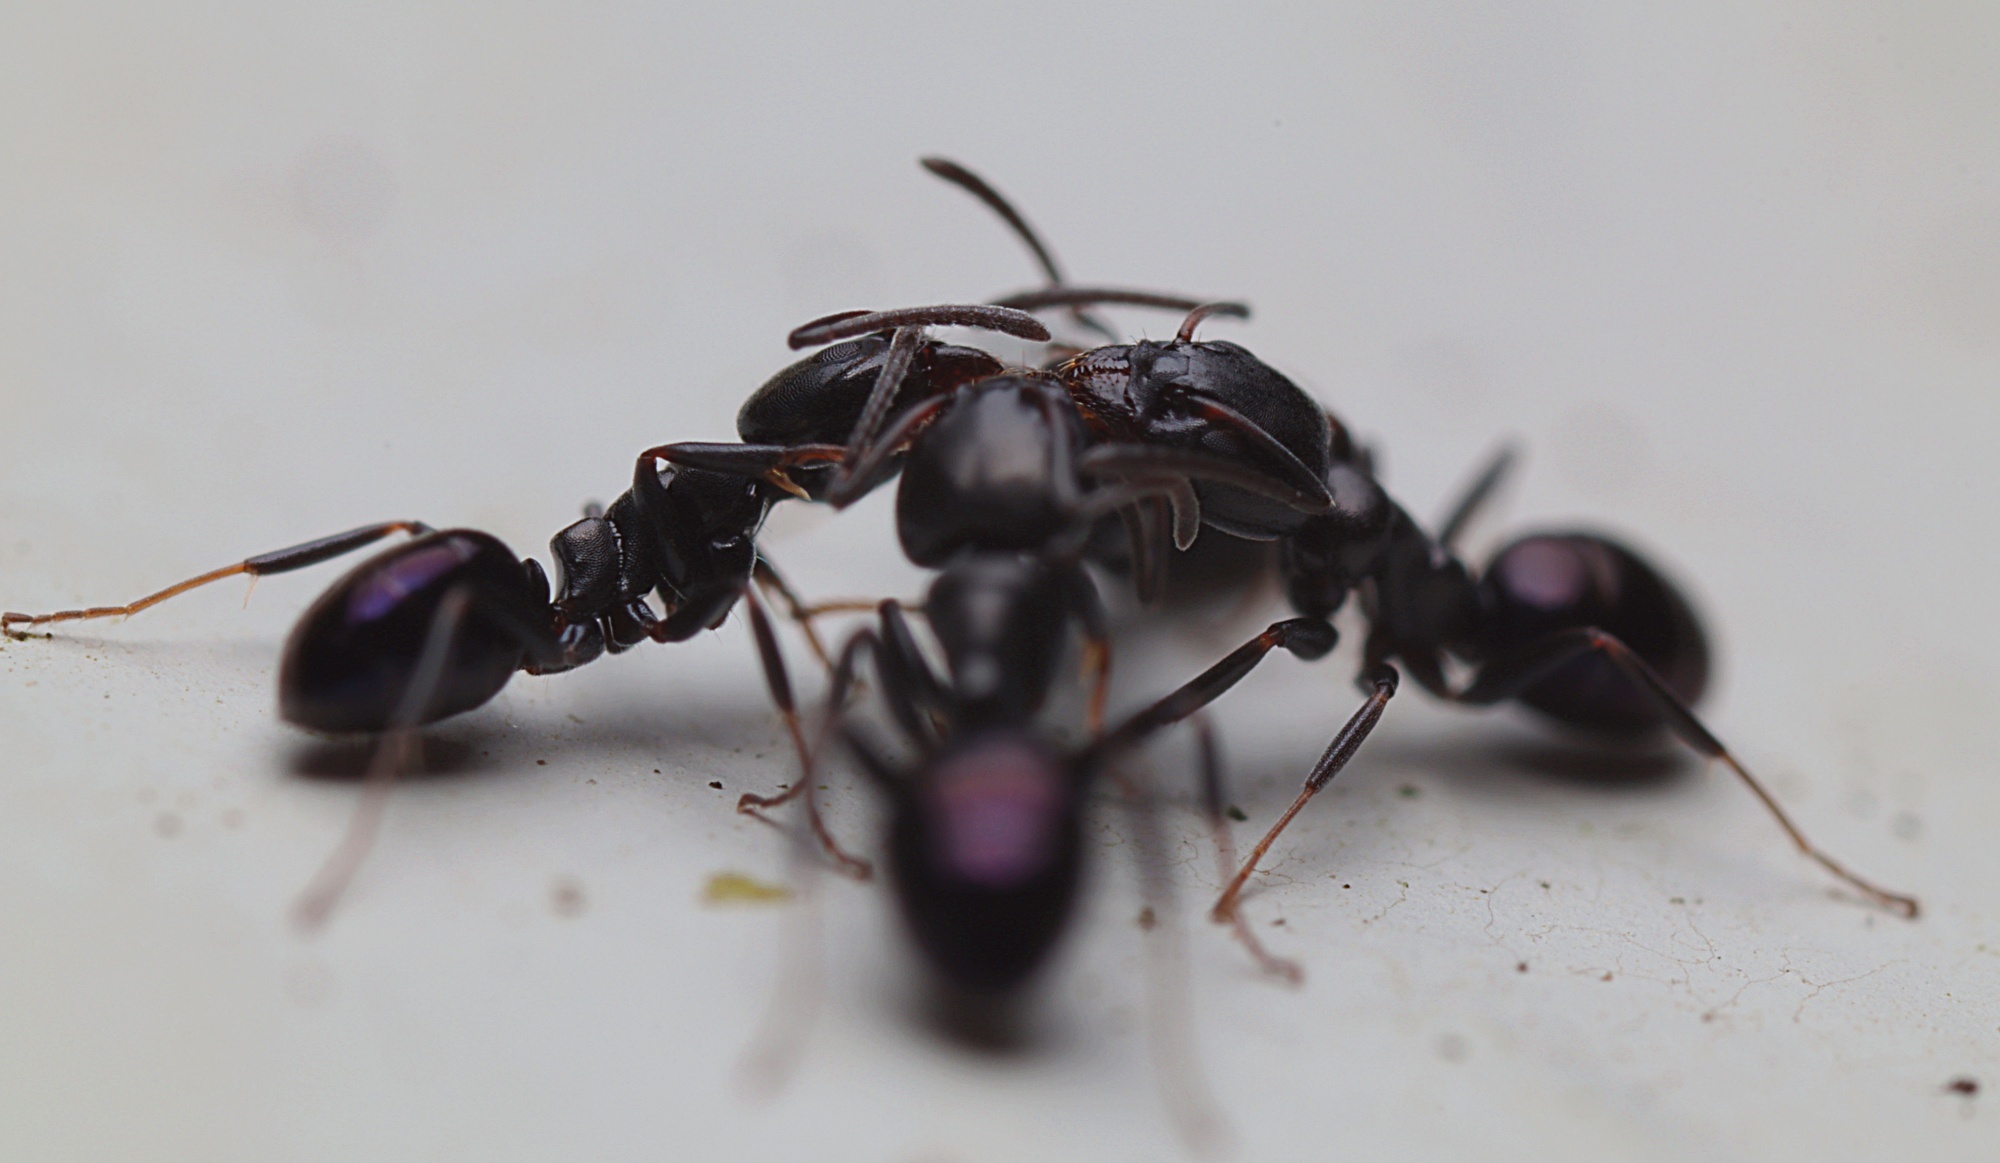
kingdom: Animalia
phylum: Arthropoda
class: Insecta
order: Hymenoptera
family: Formicidae
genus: Ochetellus
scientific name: Ochetellus glaber
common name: Ant
